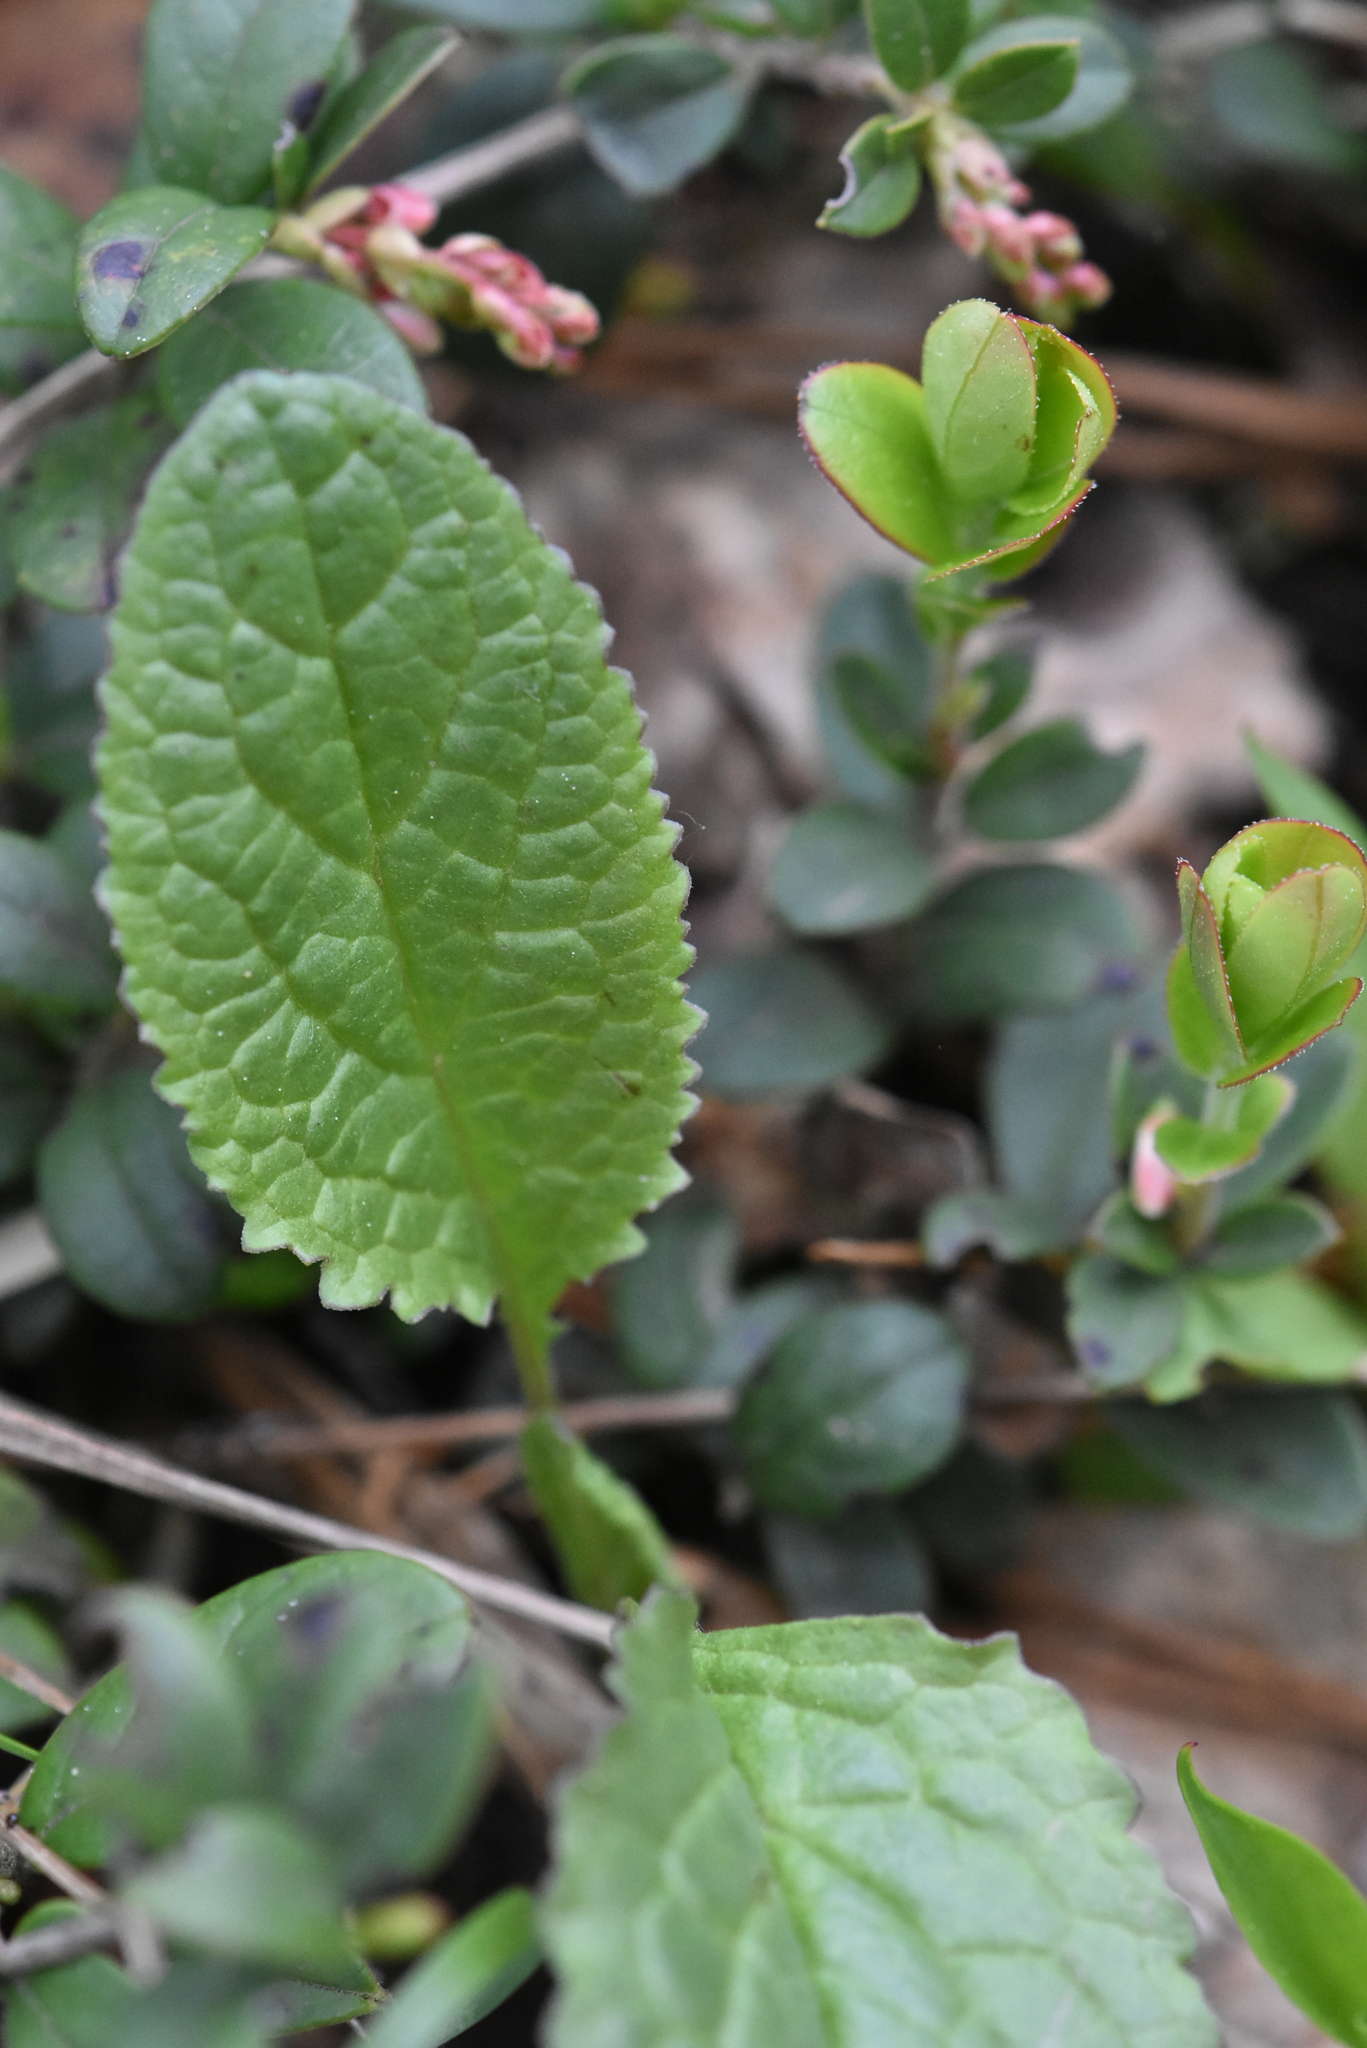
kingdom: Plantae
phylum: Tracheophyta
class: Magnoliopsida
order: Ericales
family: Ericaceae
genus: Vaccinium
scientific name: Vaccinium vitis-idaea
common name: Cowberry
